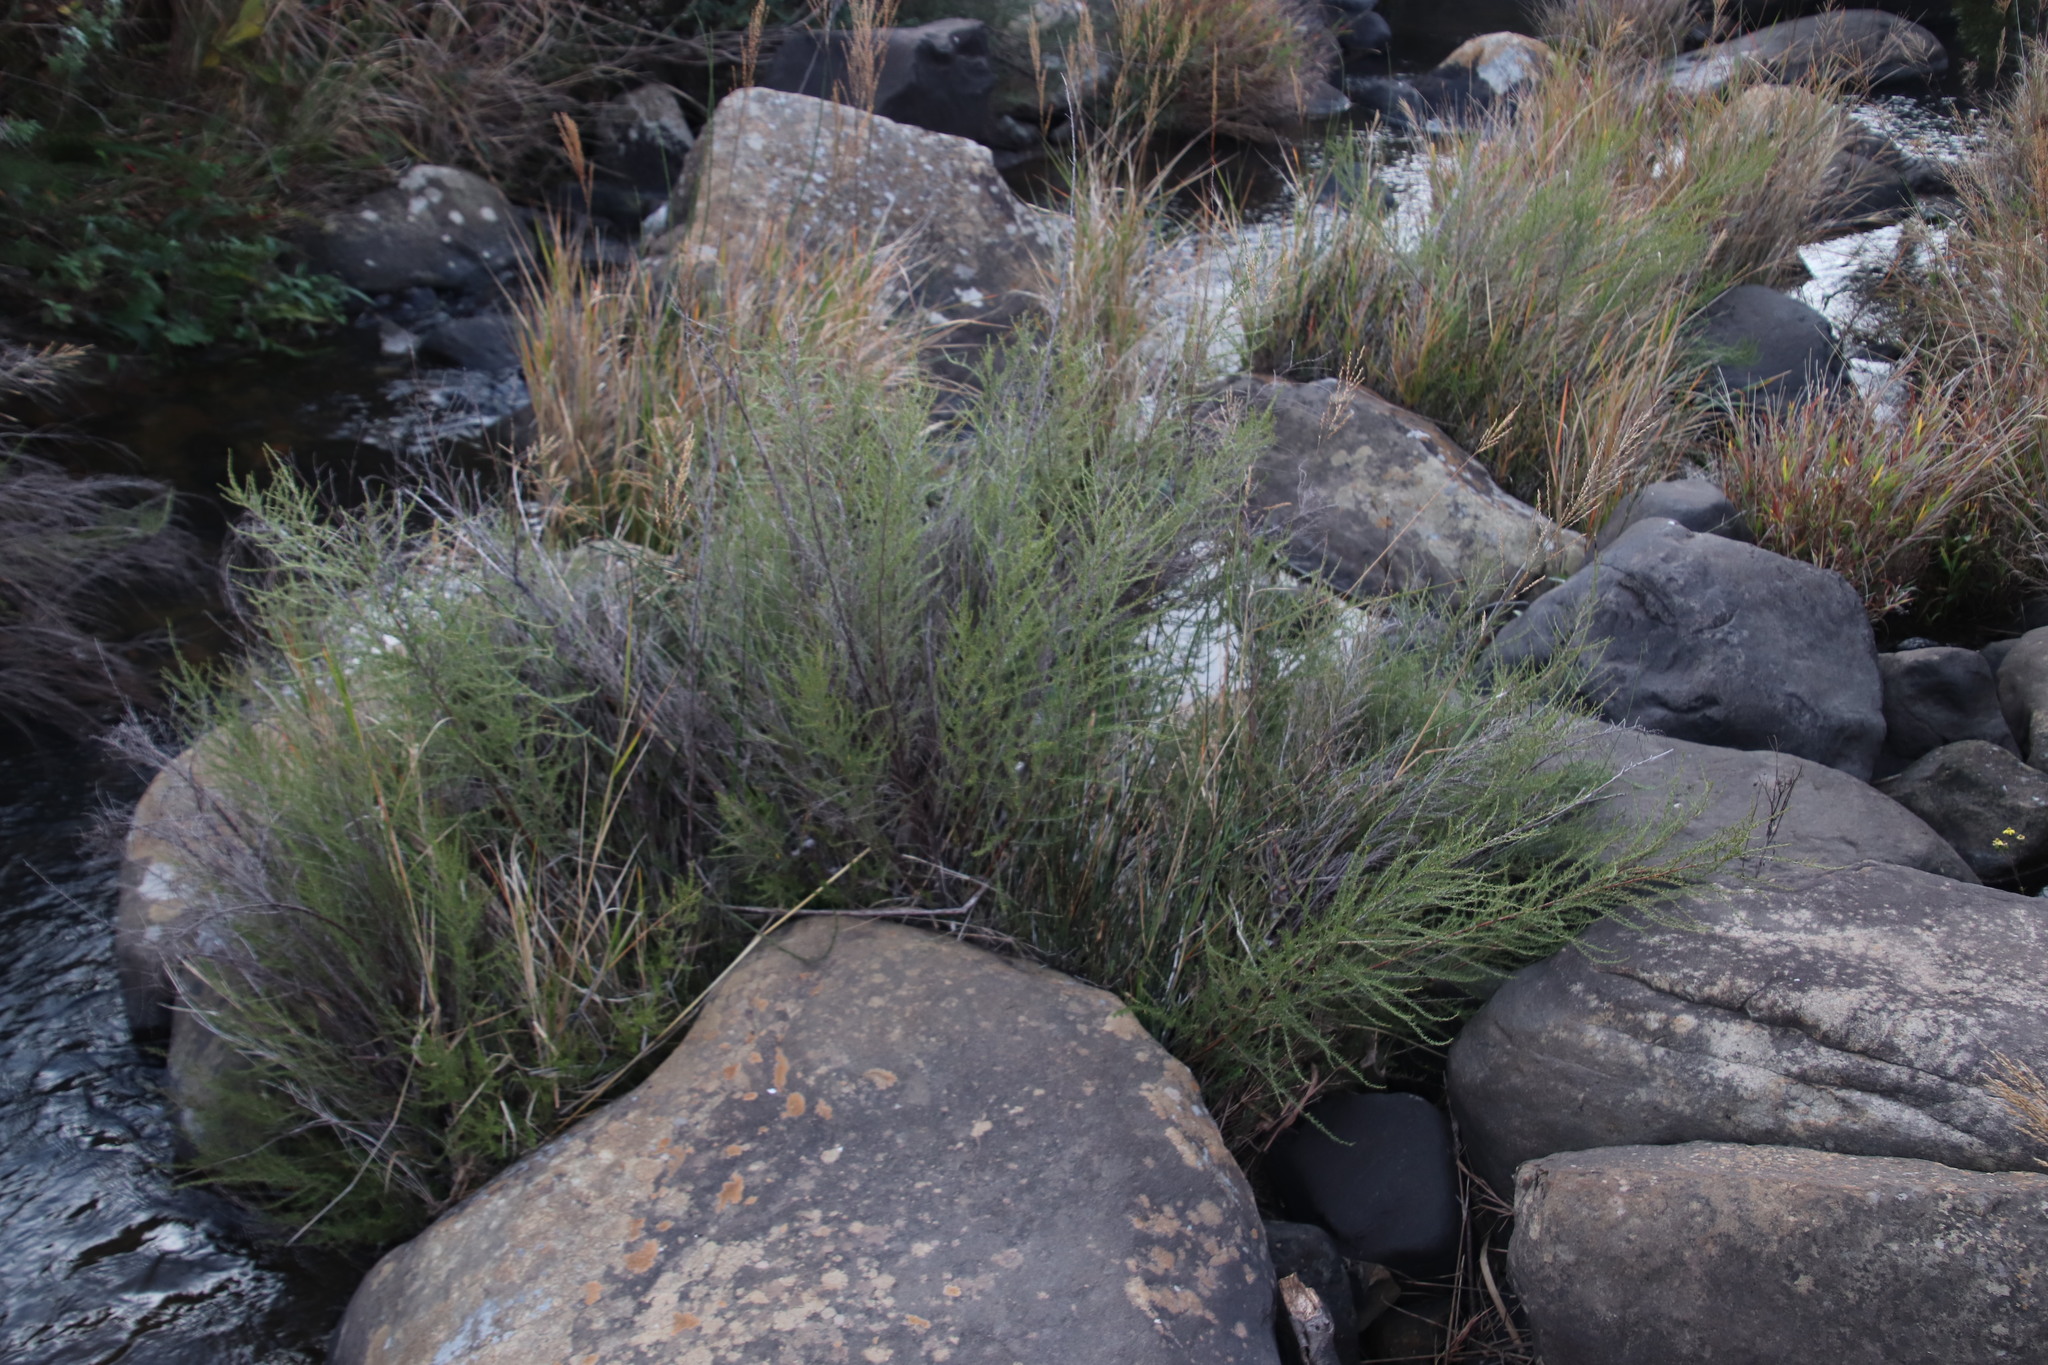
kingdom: Plantae
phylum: Tracheophyta
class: Magnoliopsida
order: Rosales
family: Rosaceae
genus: Cliffortia
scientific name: Cliffortia linearifolia
